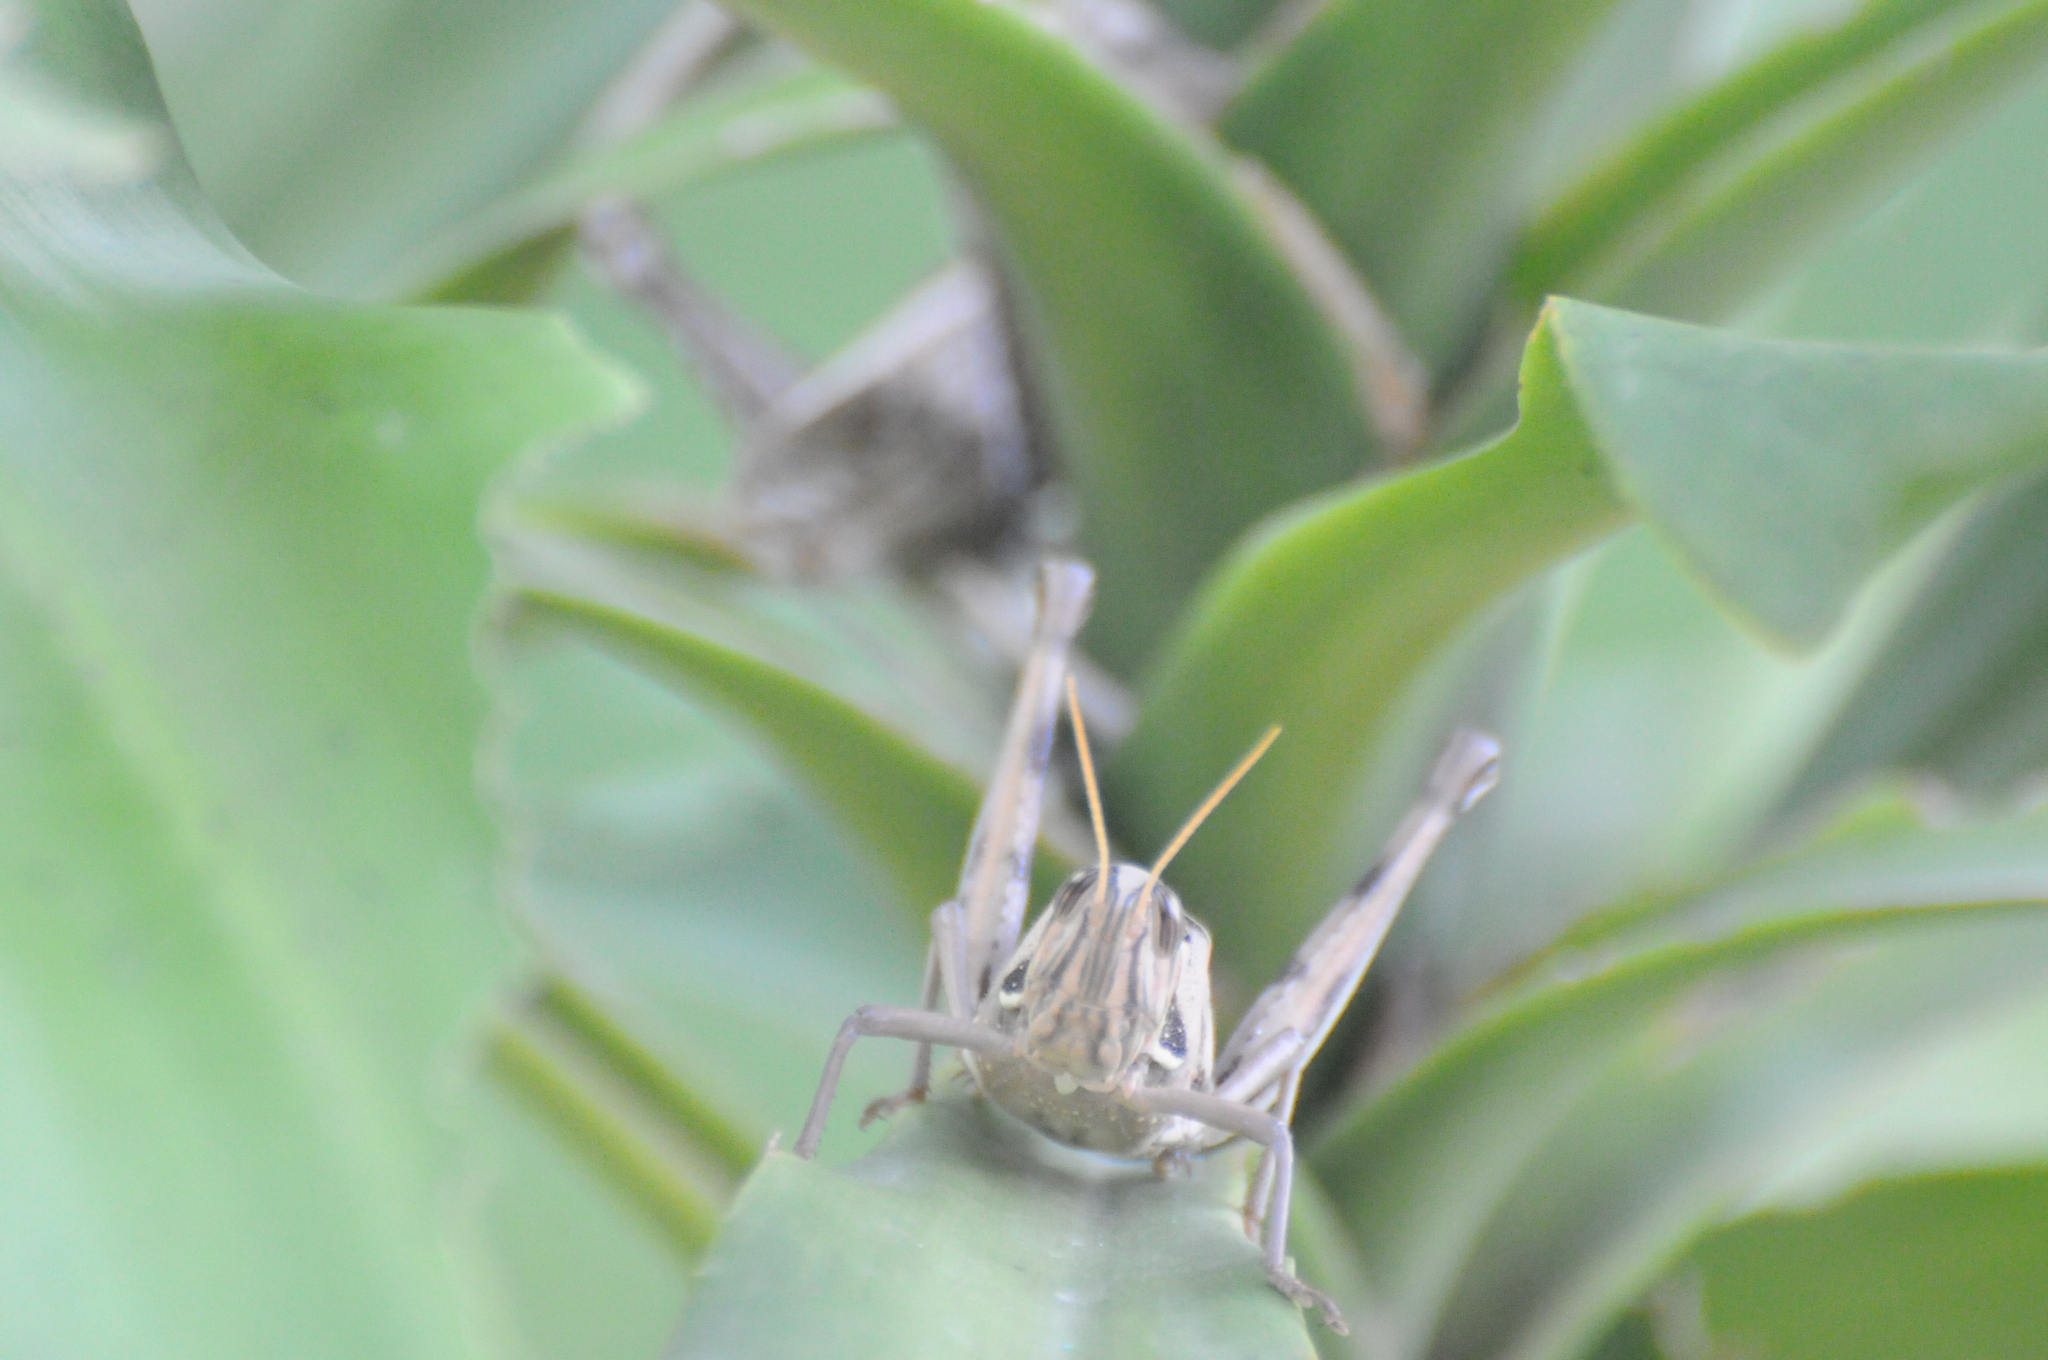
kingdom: Animalia
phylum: Arthropoda
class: Insecta
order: Orthoptera
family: Acrididae
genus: Cyrtacanthacris
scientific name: Cyrtacanthacris tatarica
